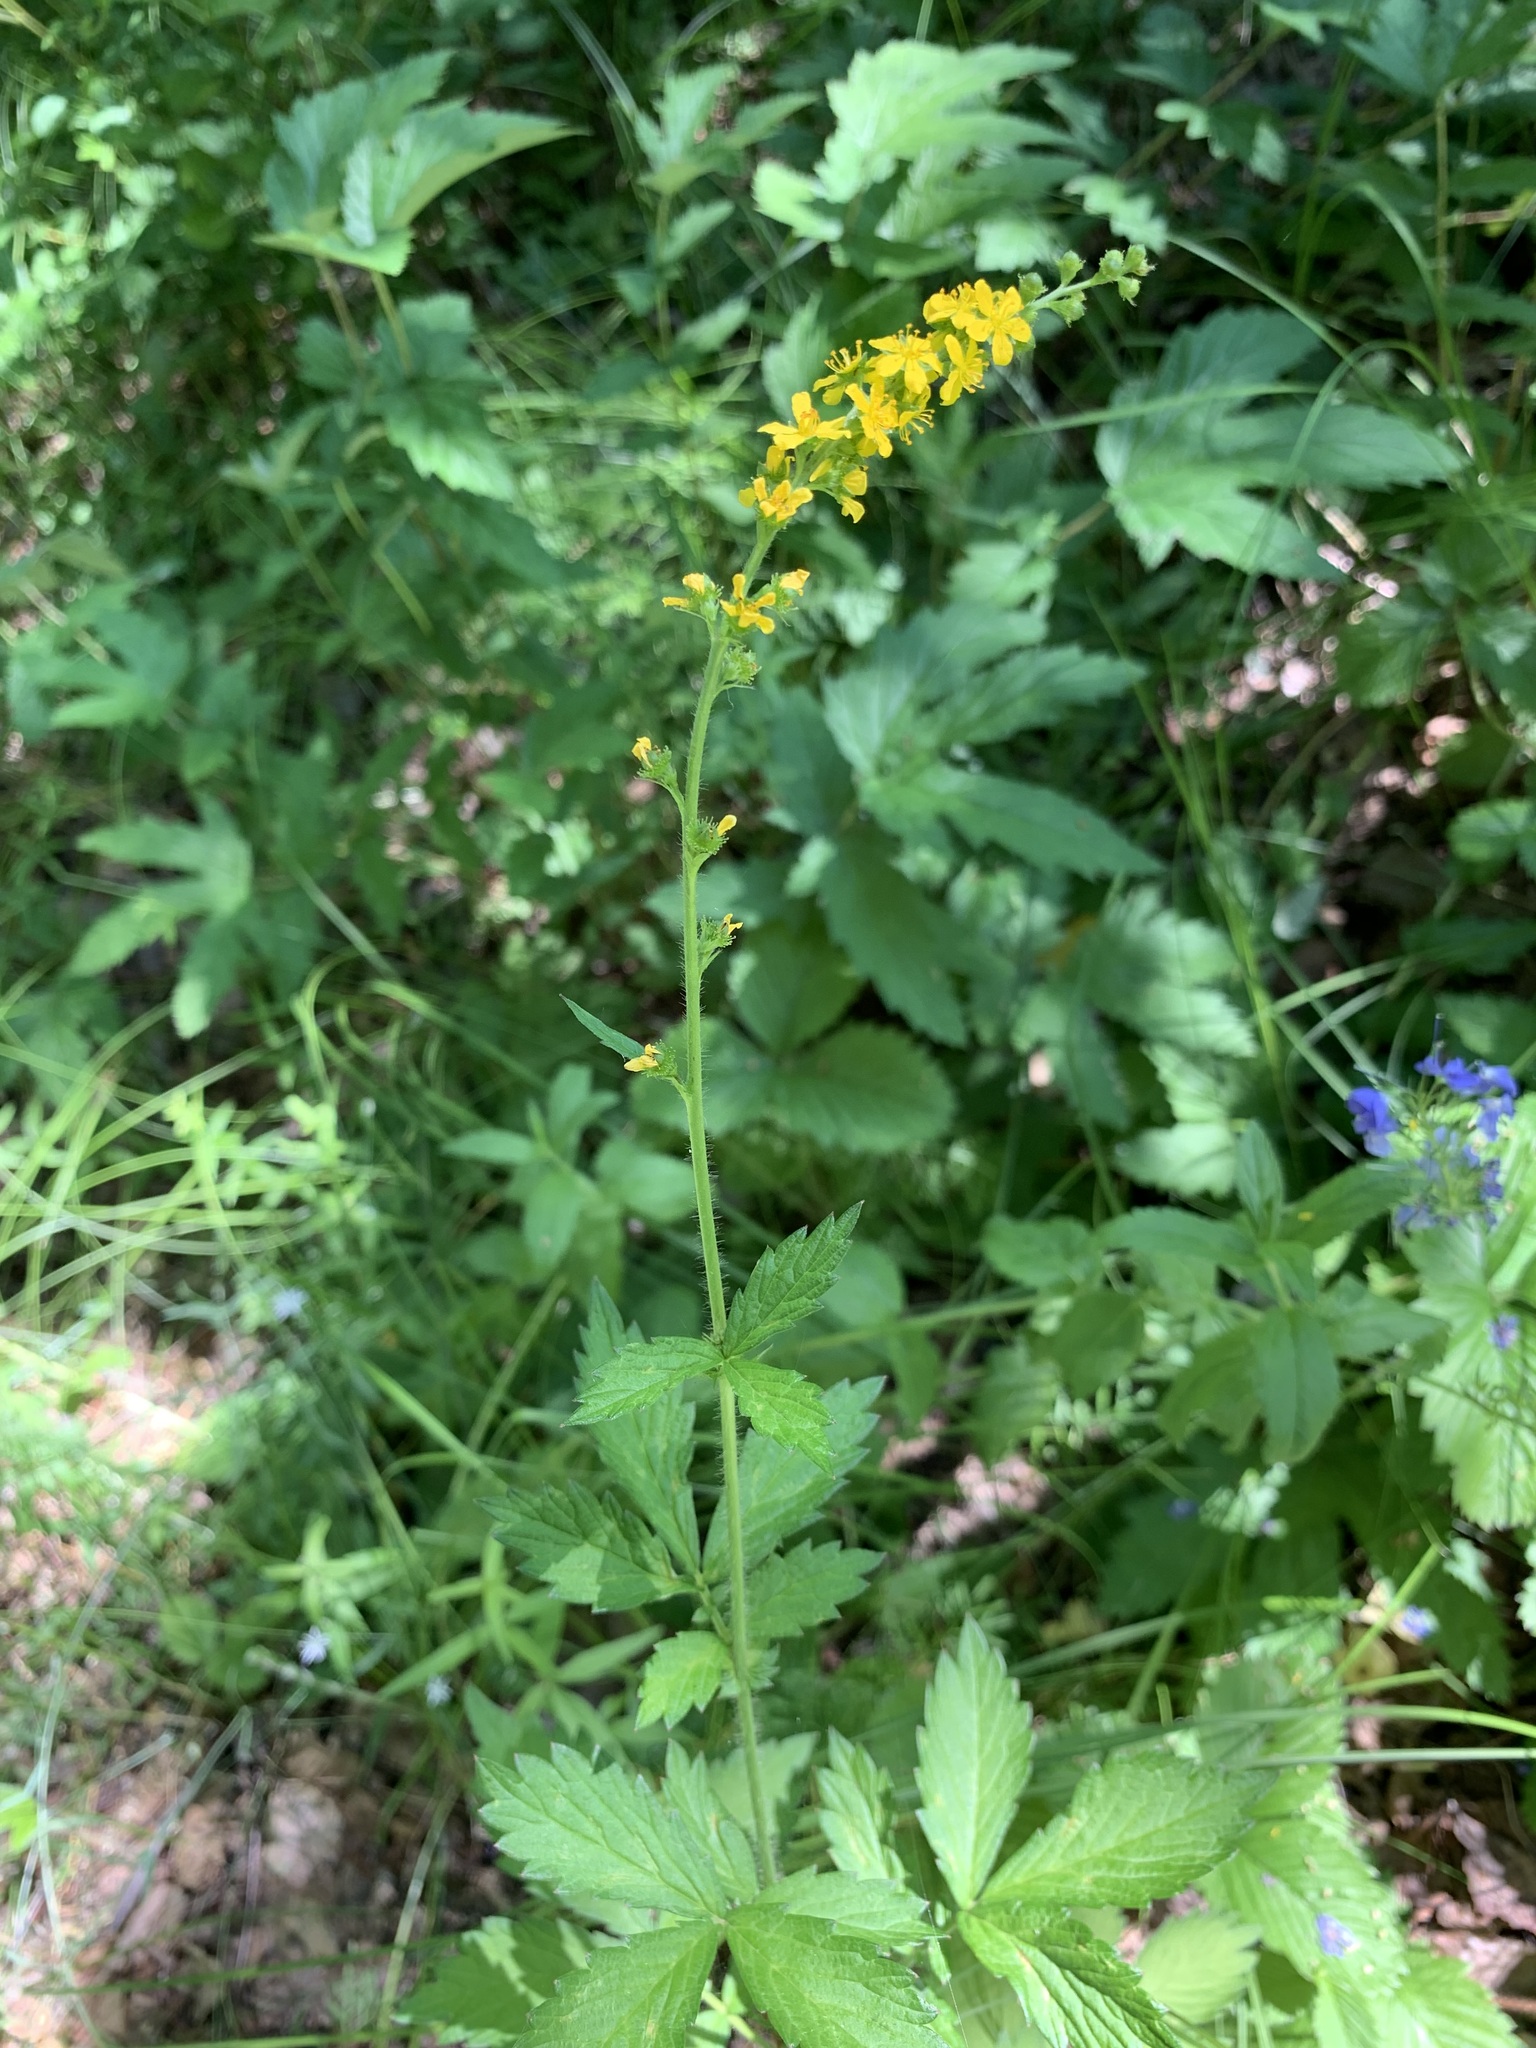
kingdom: Plantae
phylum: Tracheophyta
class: Magnoliopsida
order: Rosales
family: Rosaceae
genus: Agrimonia
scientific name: Agrimonia pilosa
